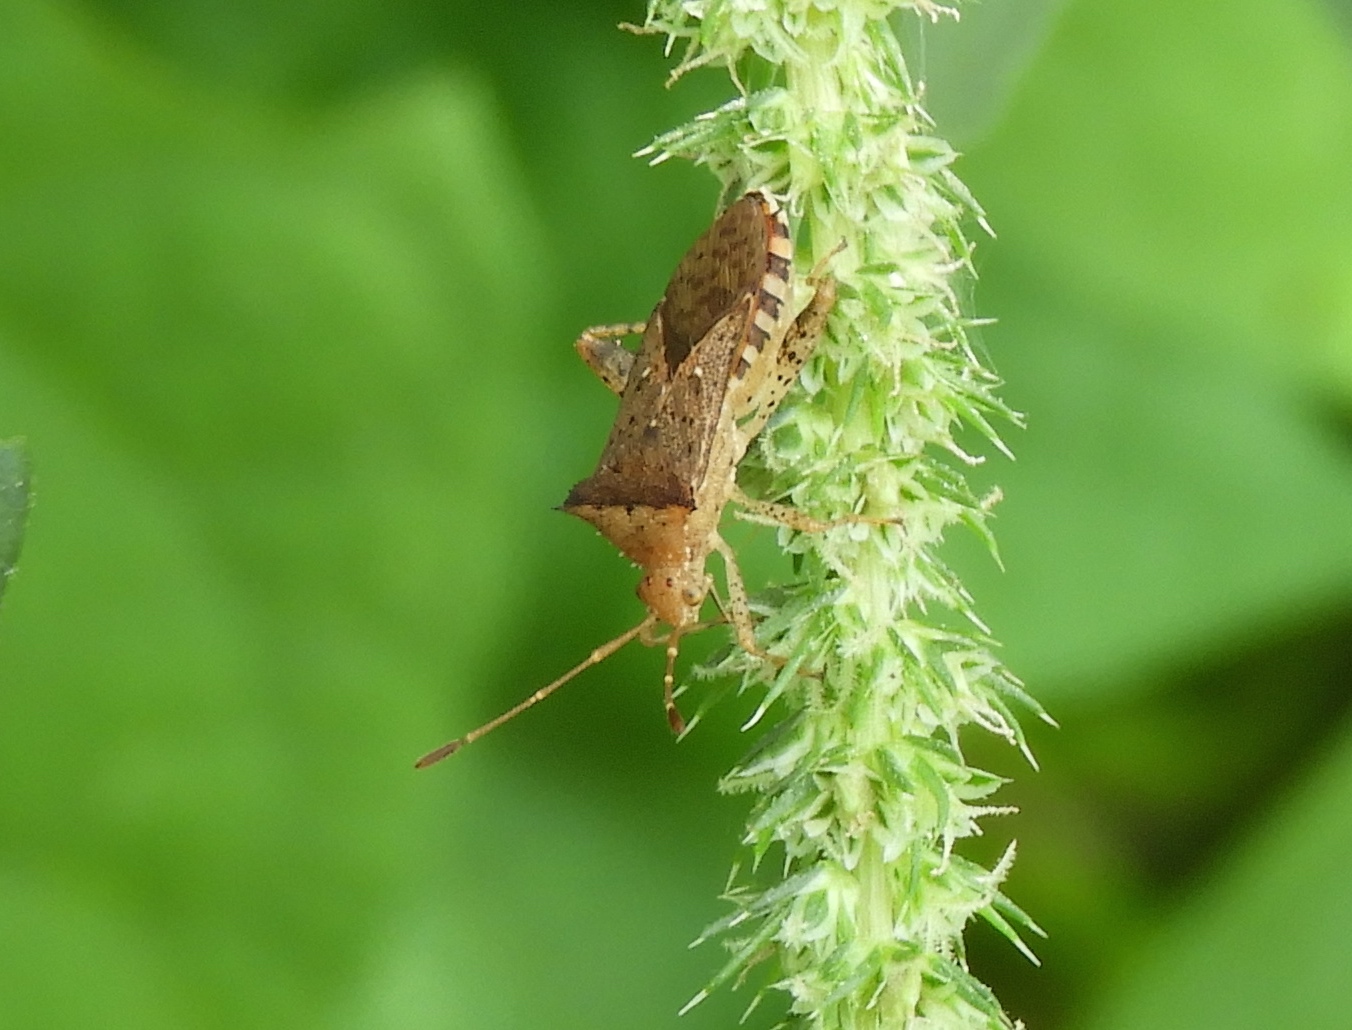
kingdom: Animalia
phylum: Arthropoda
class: Insecta
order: Hemiptera
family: Coreidae
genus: Zicca
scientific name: Zicca taeniola
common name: Leaf-footed bug
